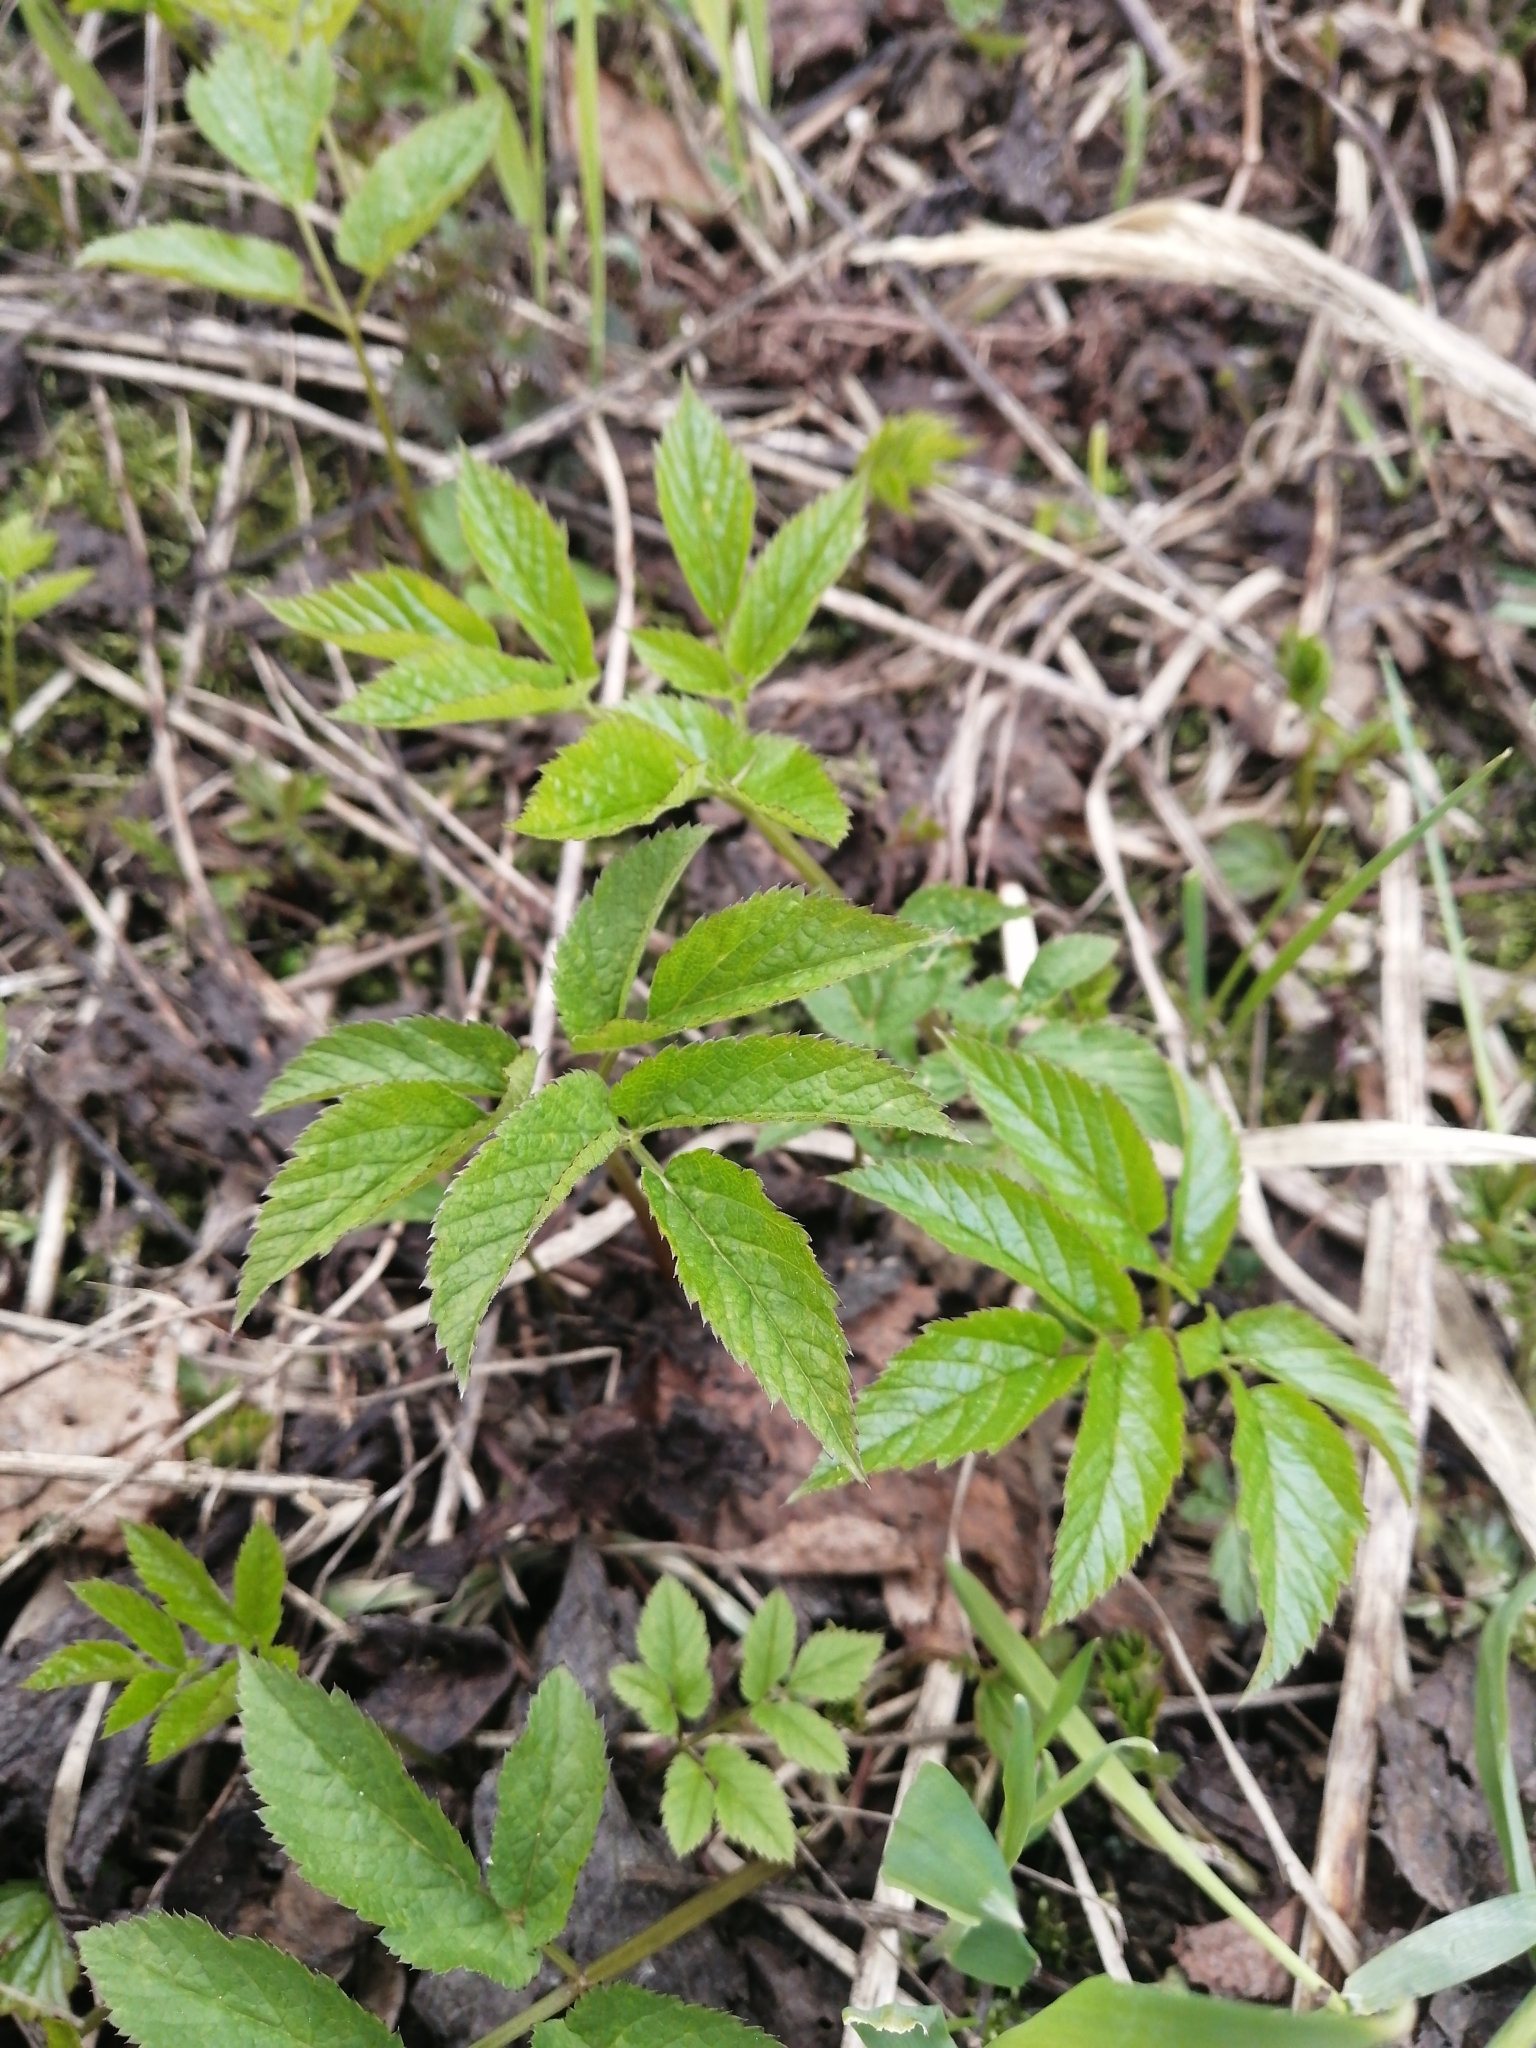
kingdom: Plantae
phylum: Tracheophyta
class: Magnoliopsida
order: Apiales
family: Apiaceae
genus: Aegopodium
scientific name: Aegopodium podagraria
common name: Ground-elder
